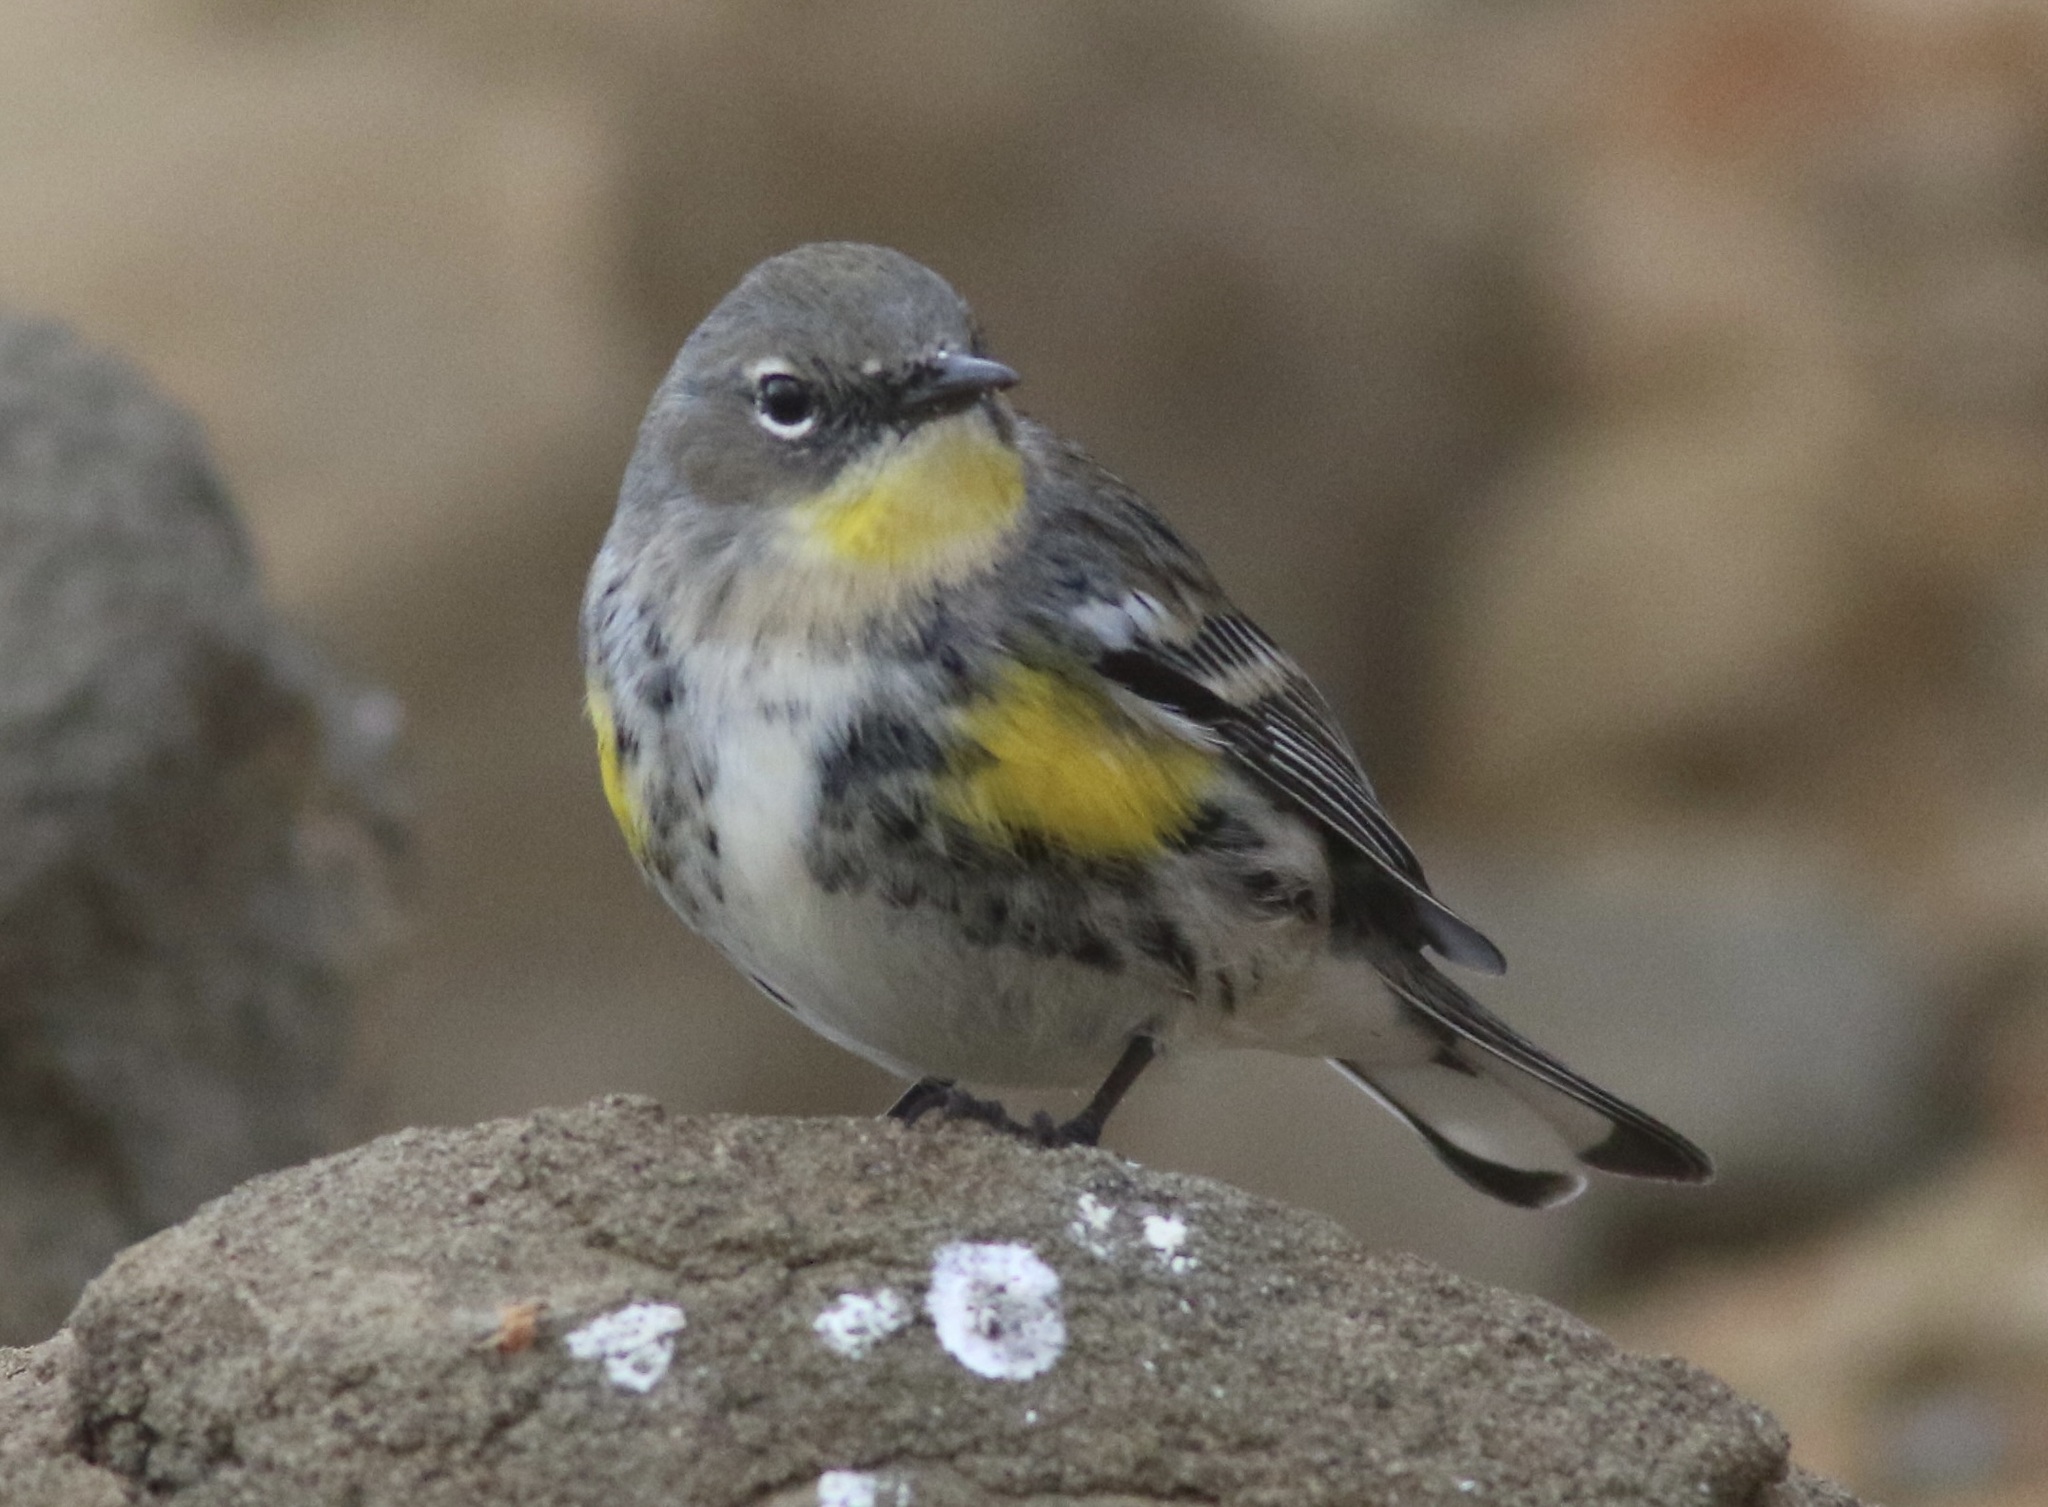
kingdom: Animalia
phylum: Chordata
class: Aves
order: Passeriformes
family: Parulidae
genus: Setophaga
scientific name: Setophaga auduboni
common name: Audubon's warbler
